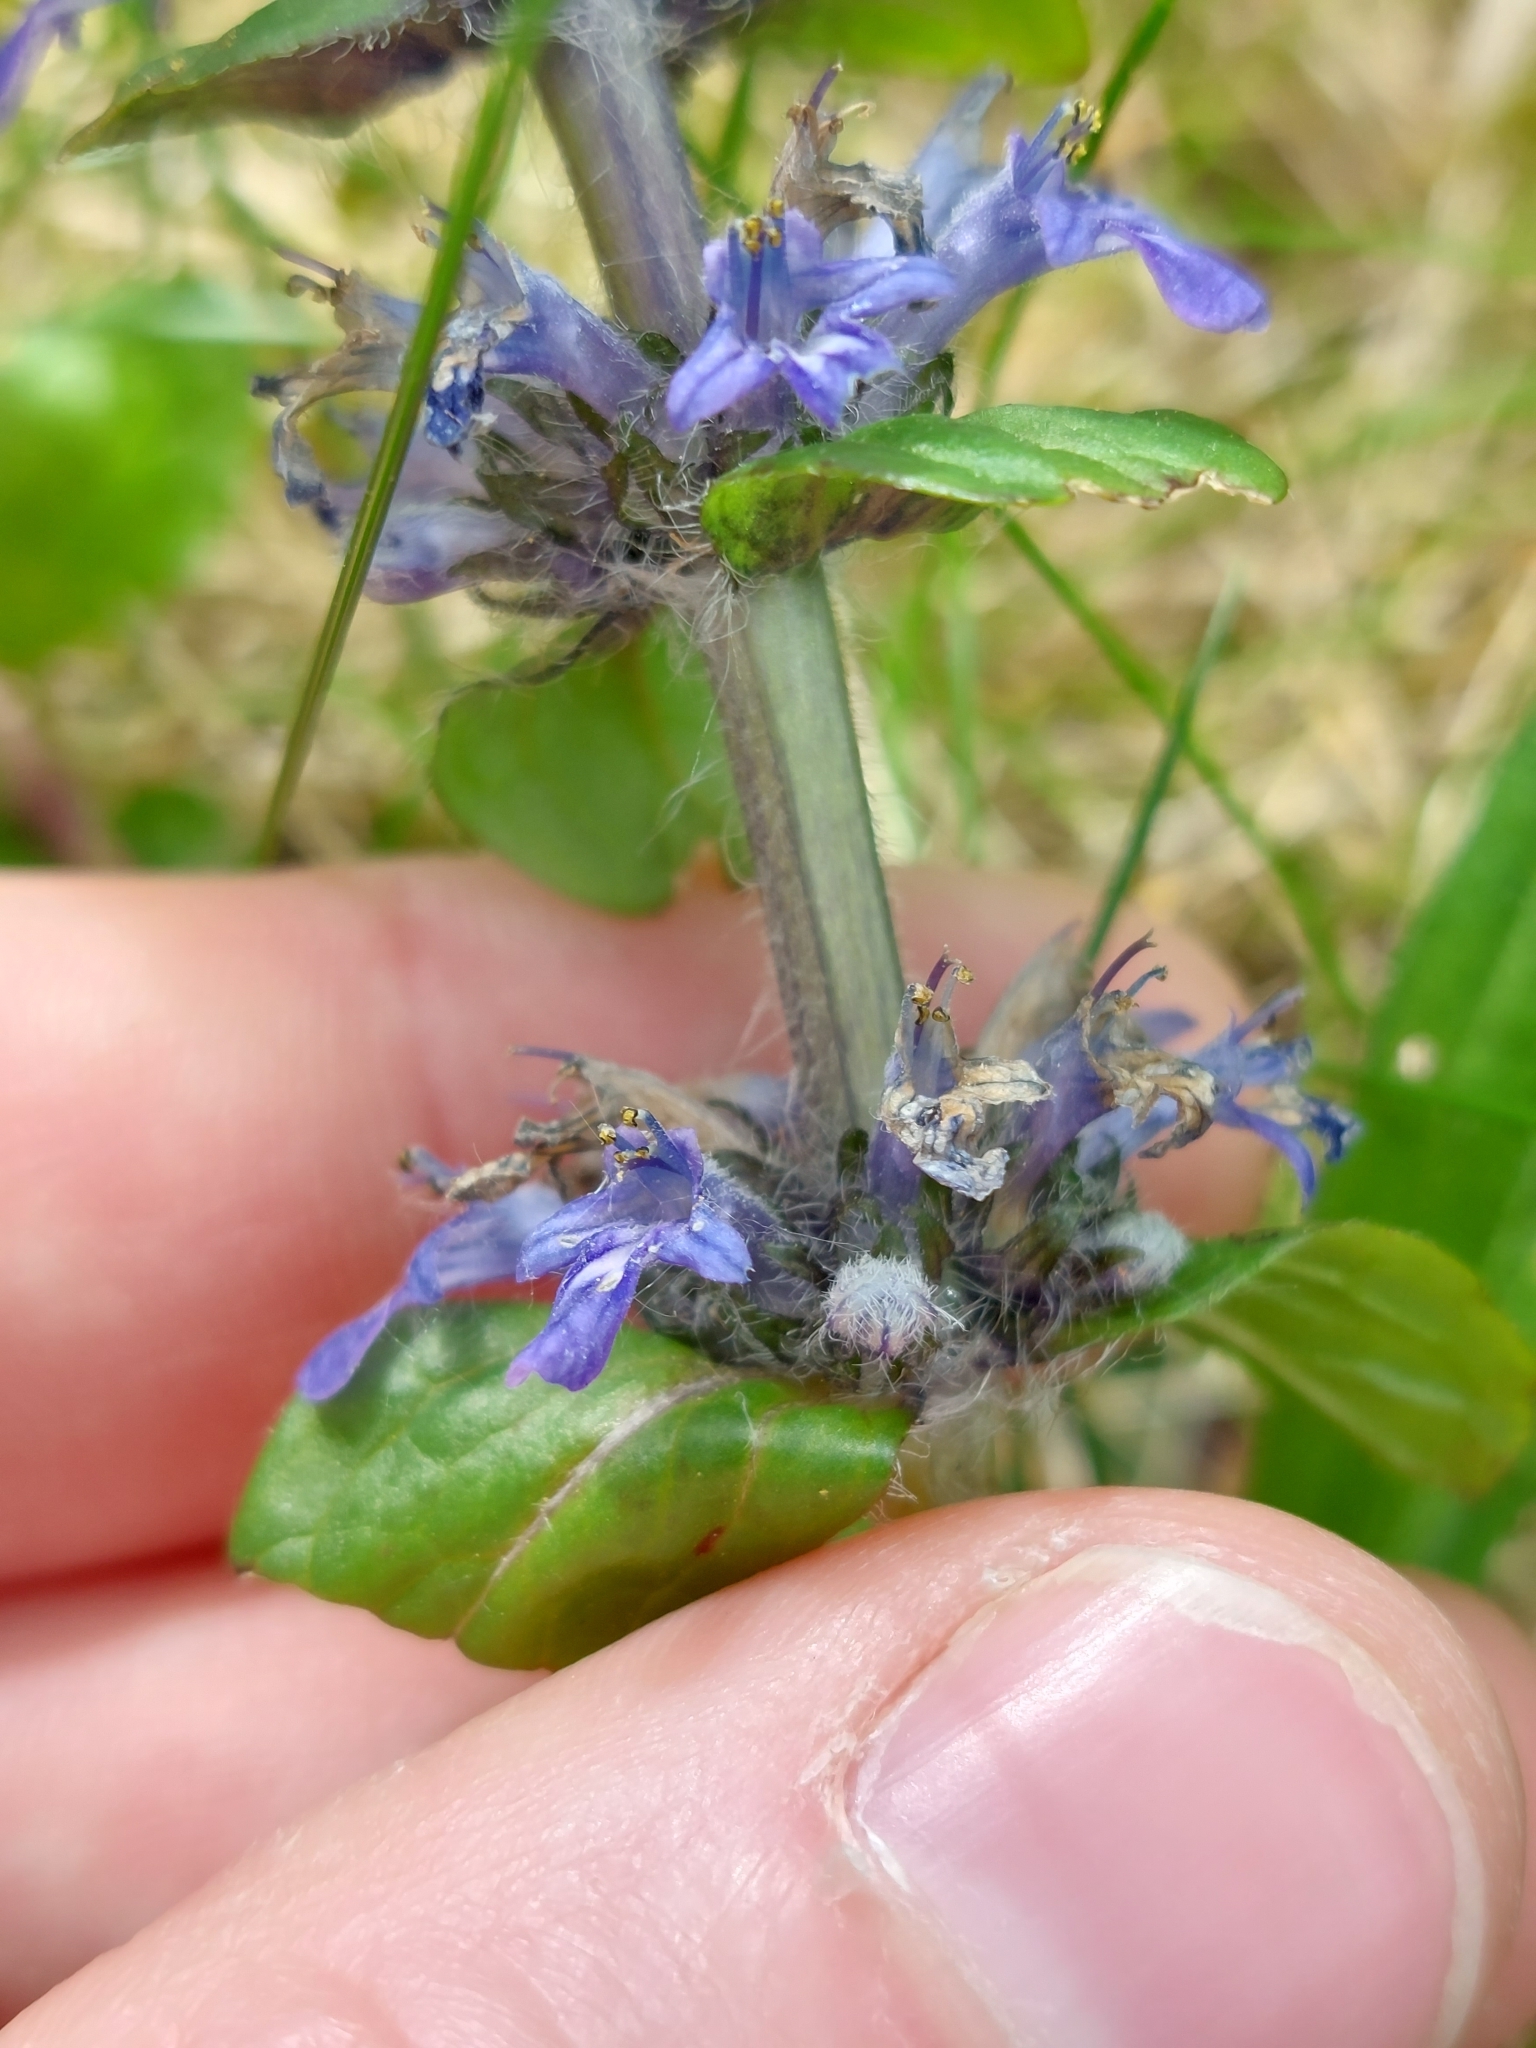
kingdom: Plantae
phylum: Tracheophyta
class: Magnoliopsida
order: Lamiales
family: Lamiaceae
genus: Ajuga
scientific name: Ajuga reptans
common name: Bugle
